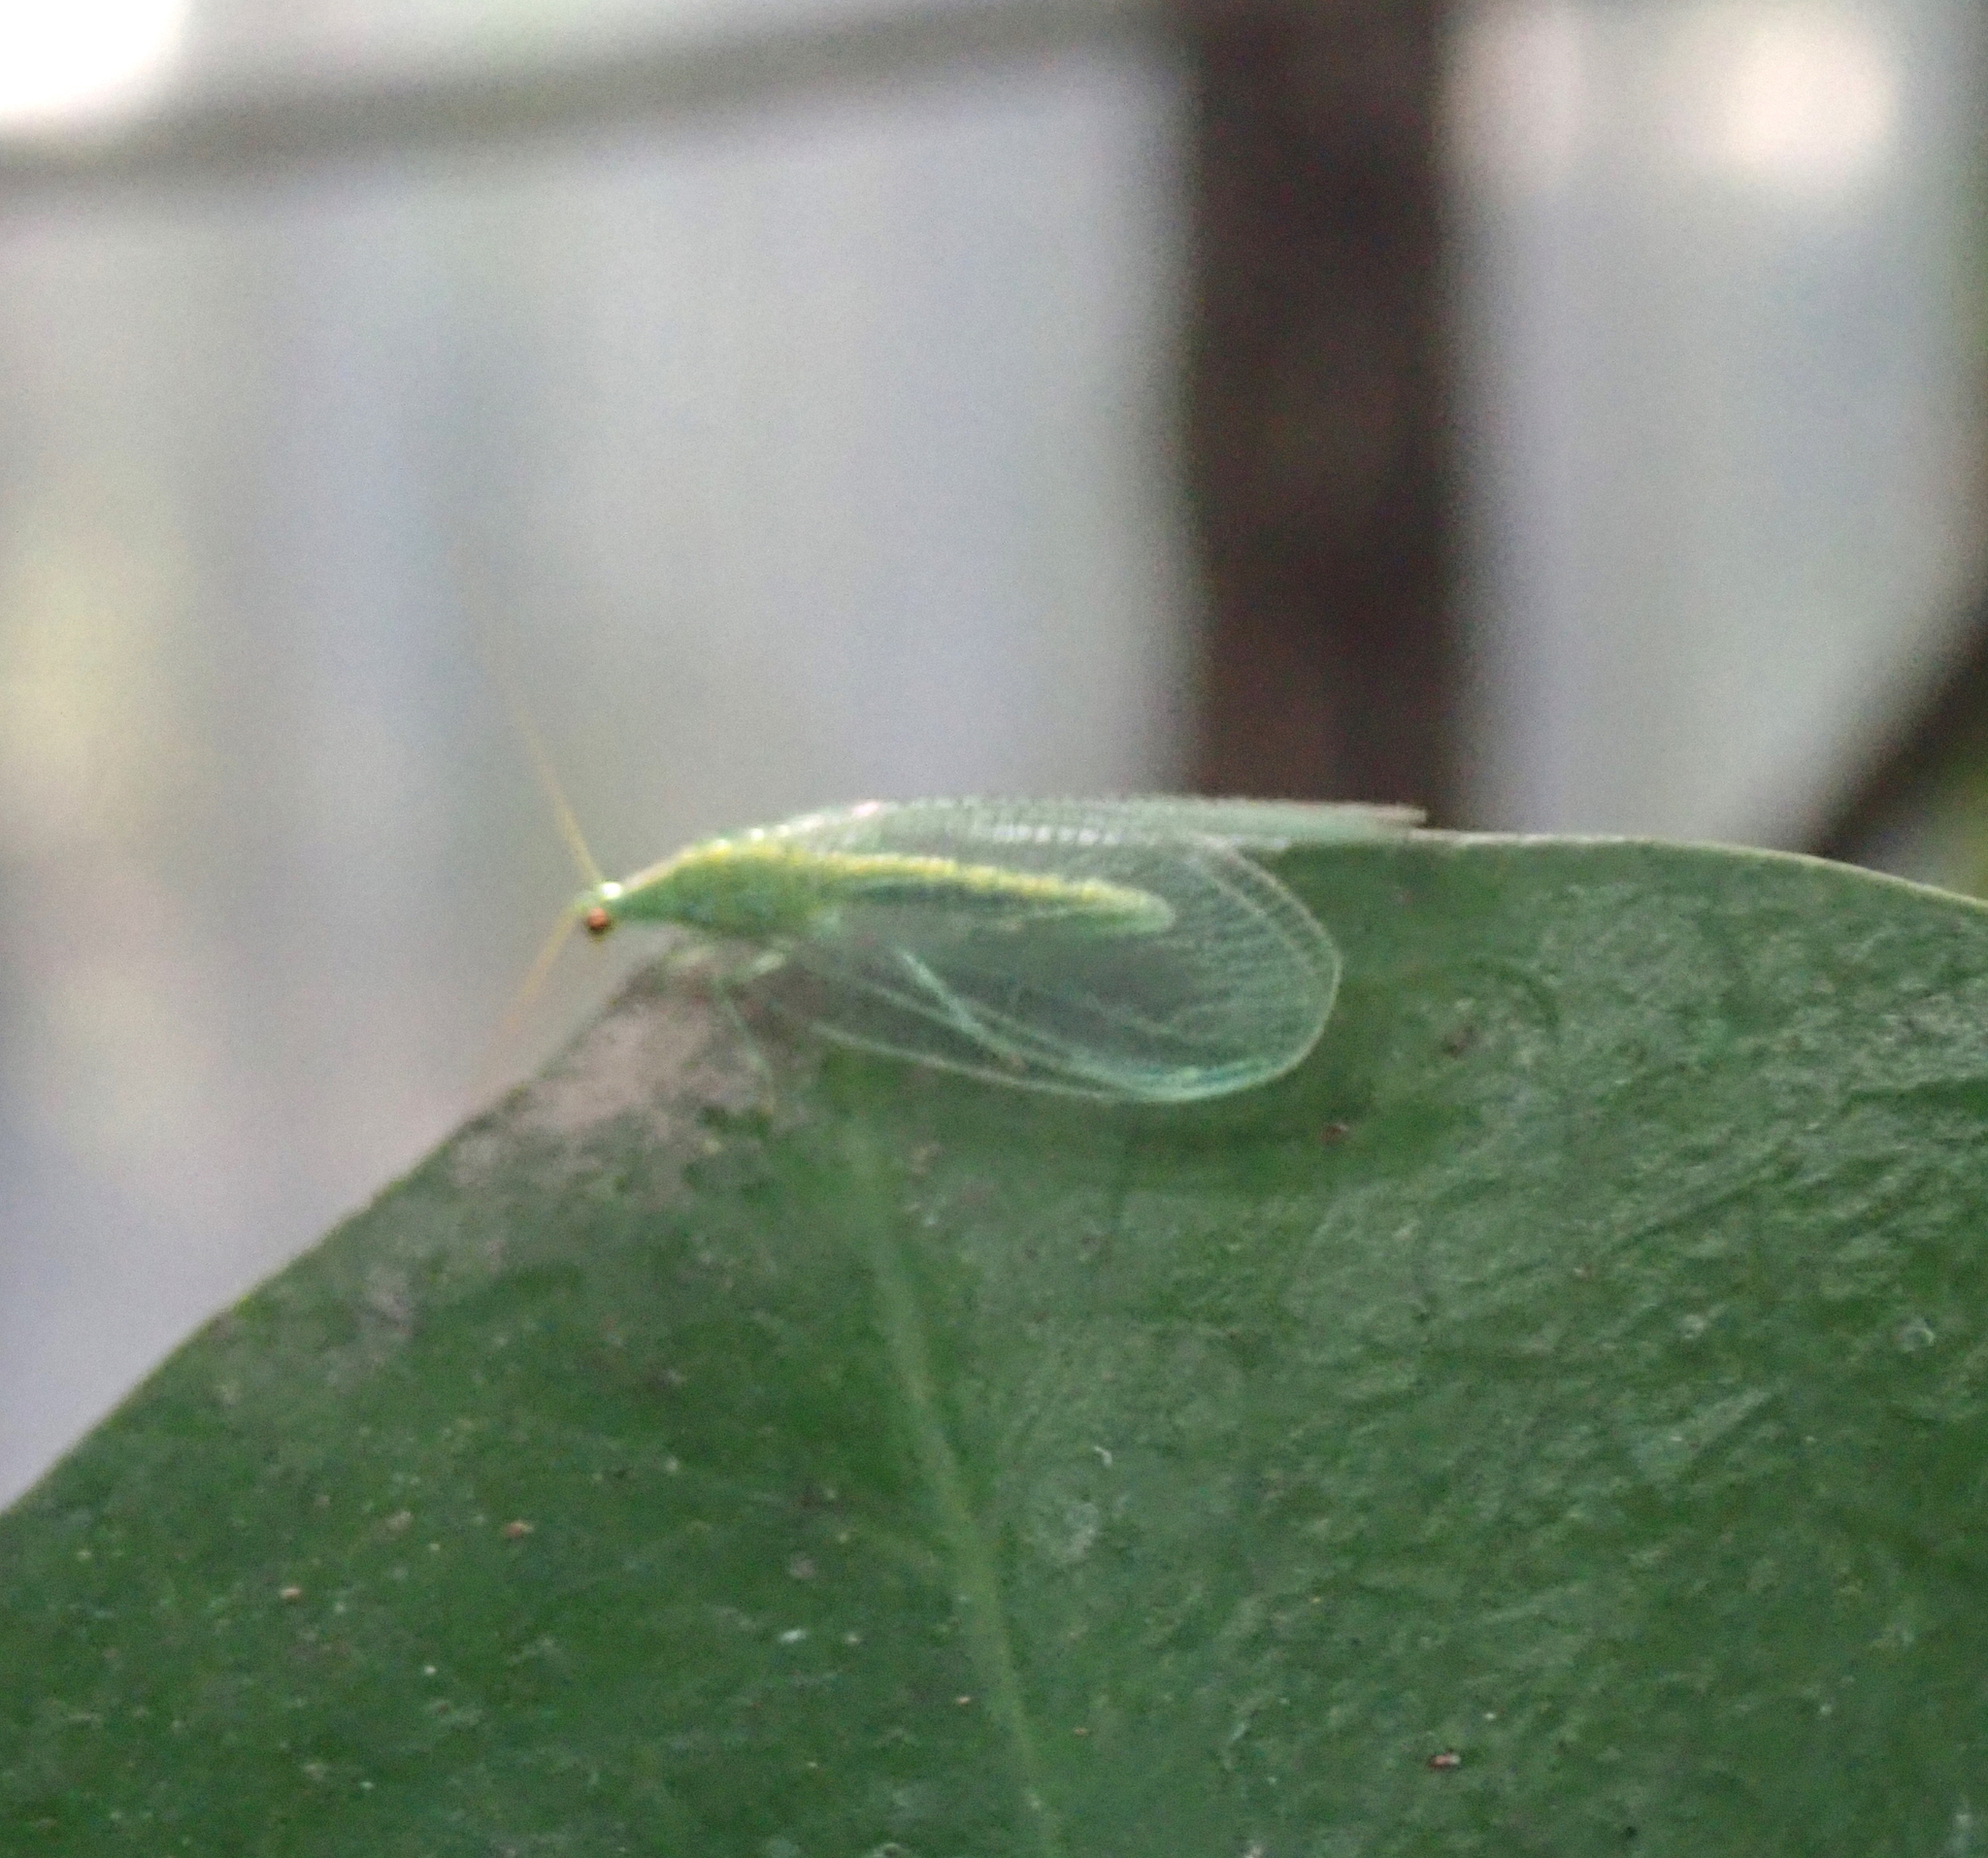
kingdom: Animalia
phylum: Arthropoda
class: Insecta
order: Neuroptera
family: Chrysopidae
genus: Mallada
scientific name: Mallada basalis
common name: Green lacewing
